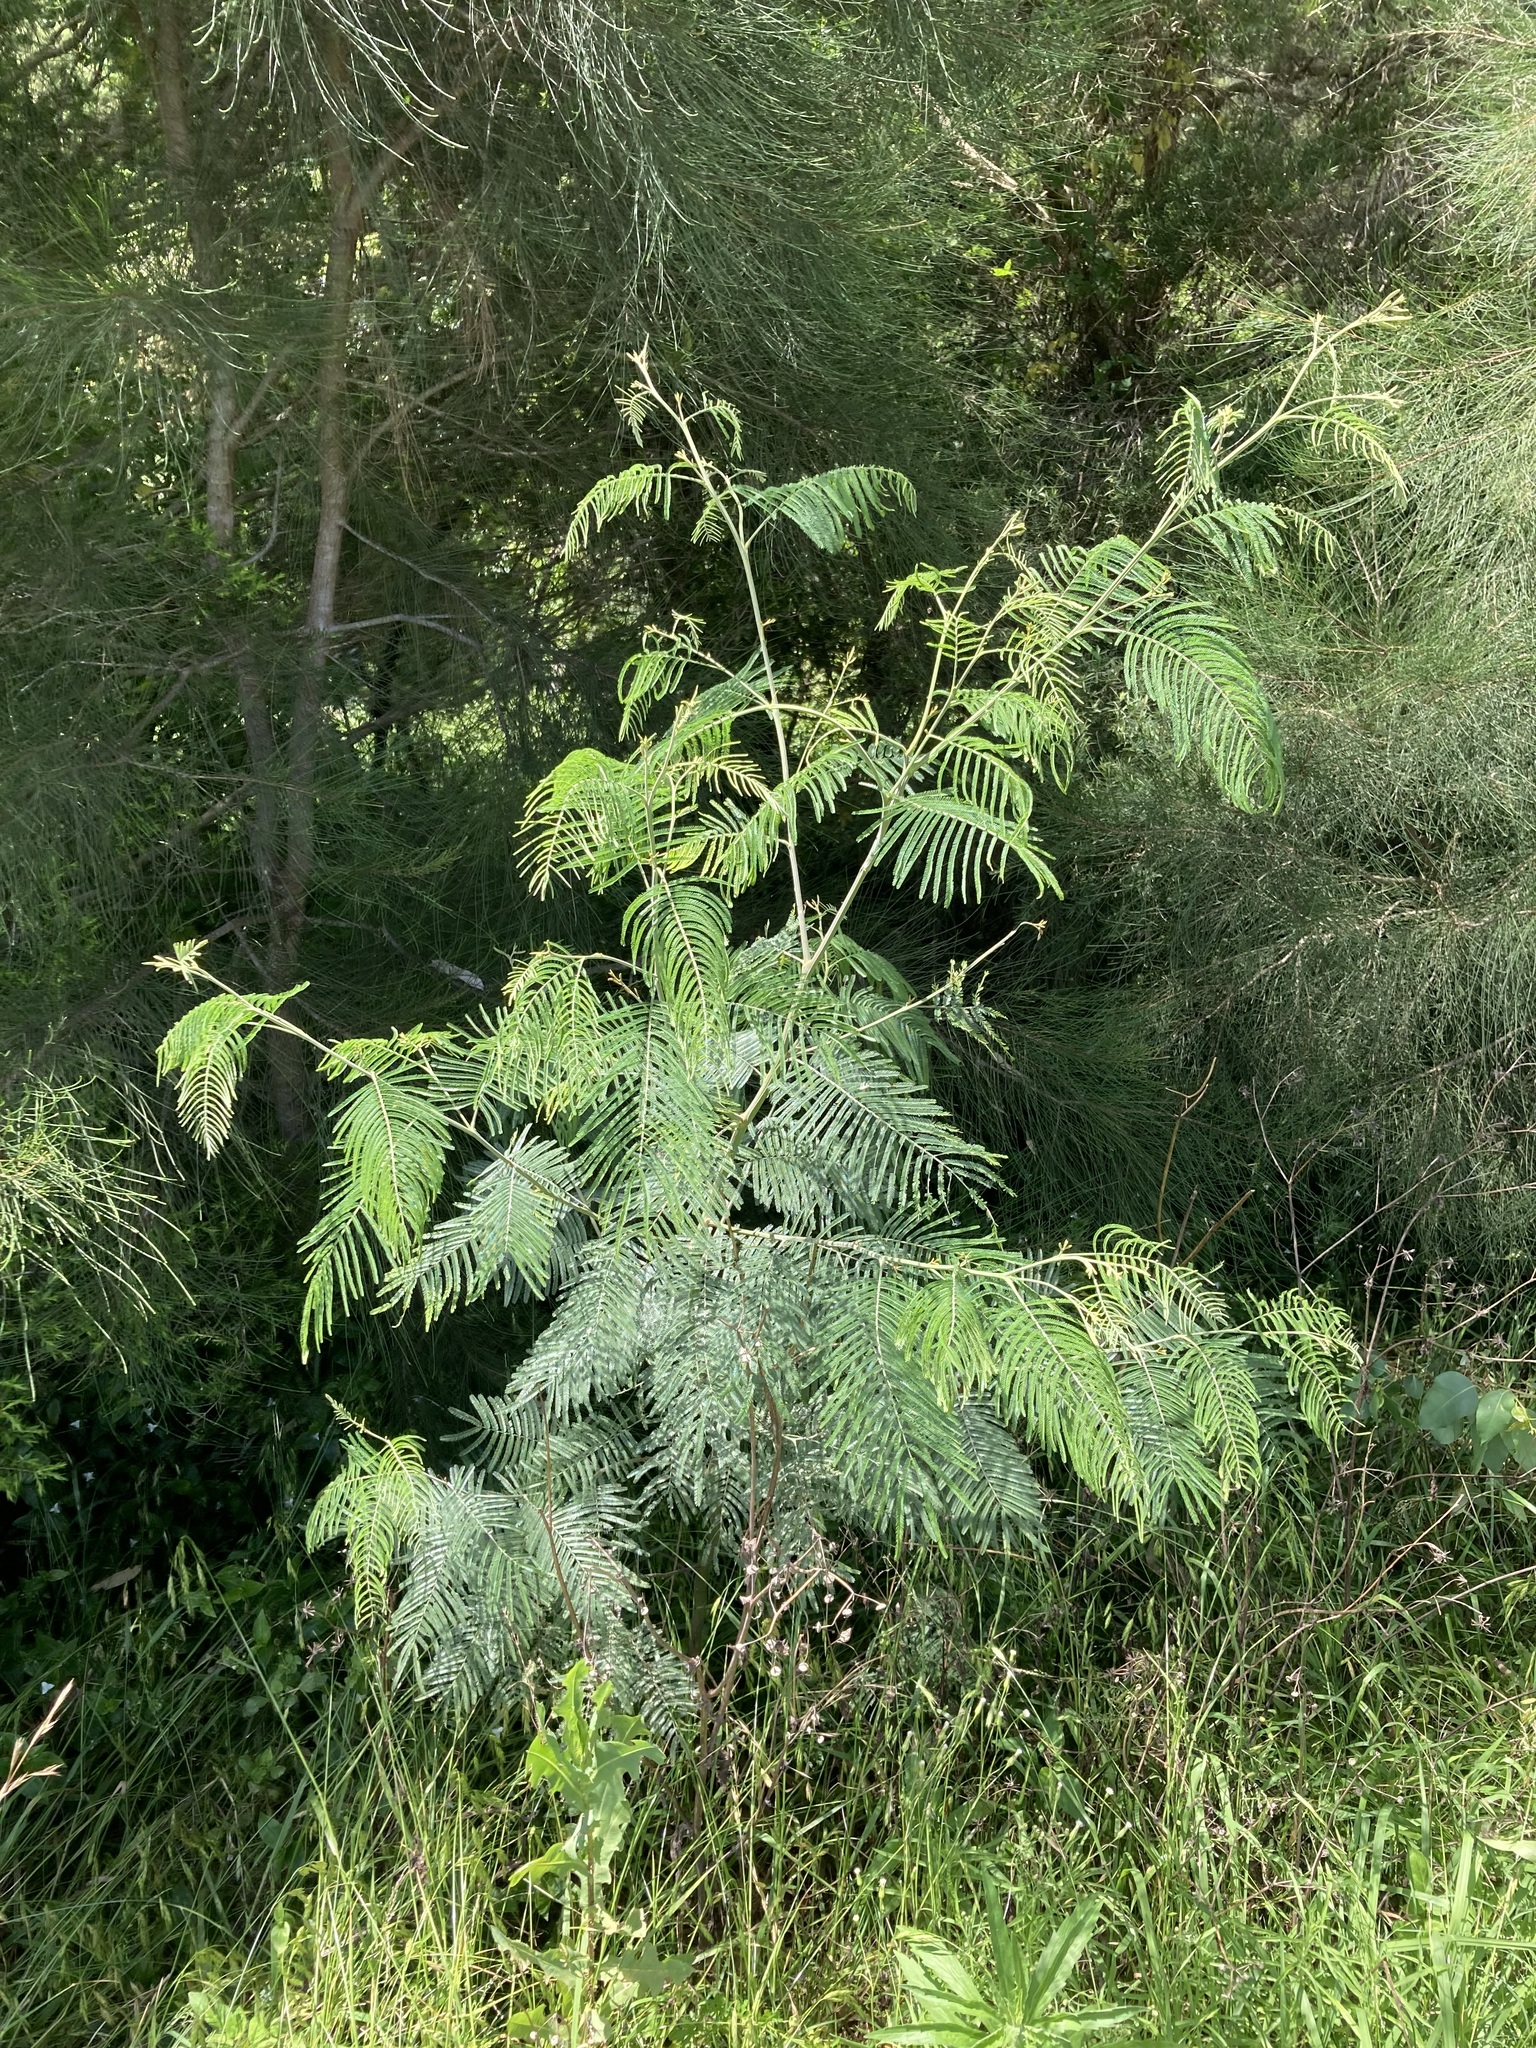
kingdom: Plantae
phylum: Tracheophyta
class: Magnoliopsida
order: Fabales
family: Fabaceae
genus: Acacia
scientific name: Acacia parramattensis
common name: Sydney green wattle
